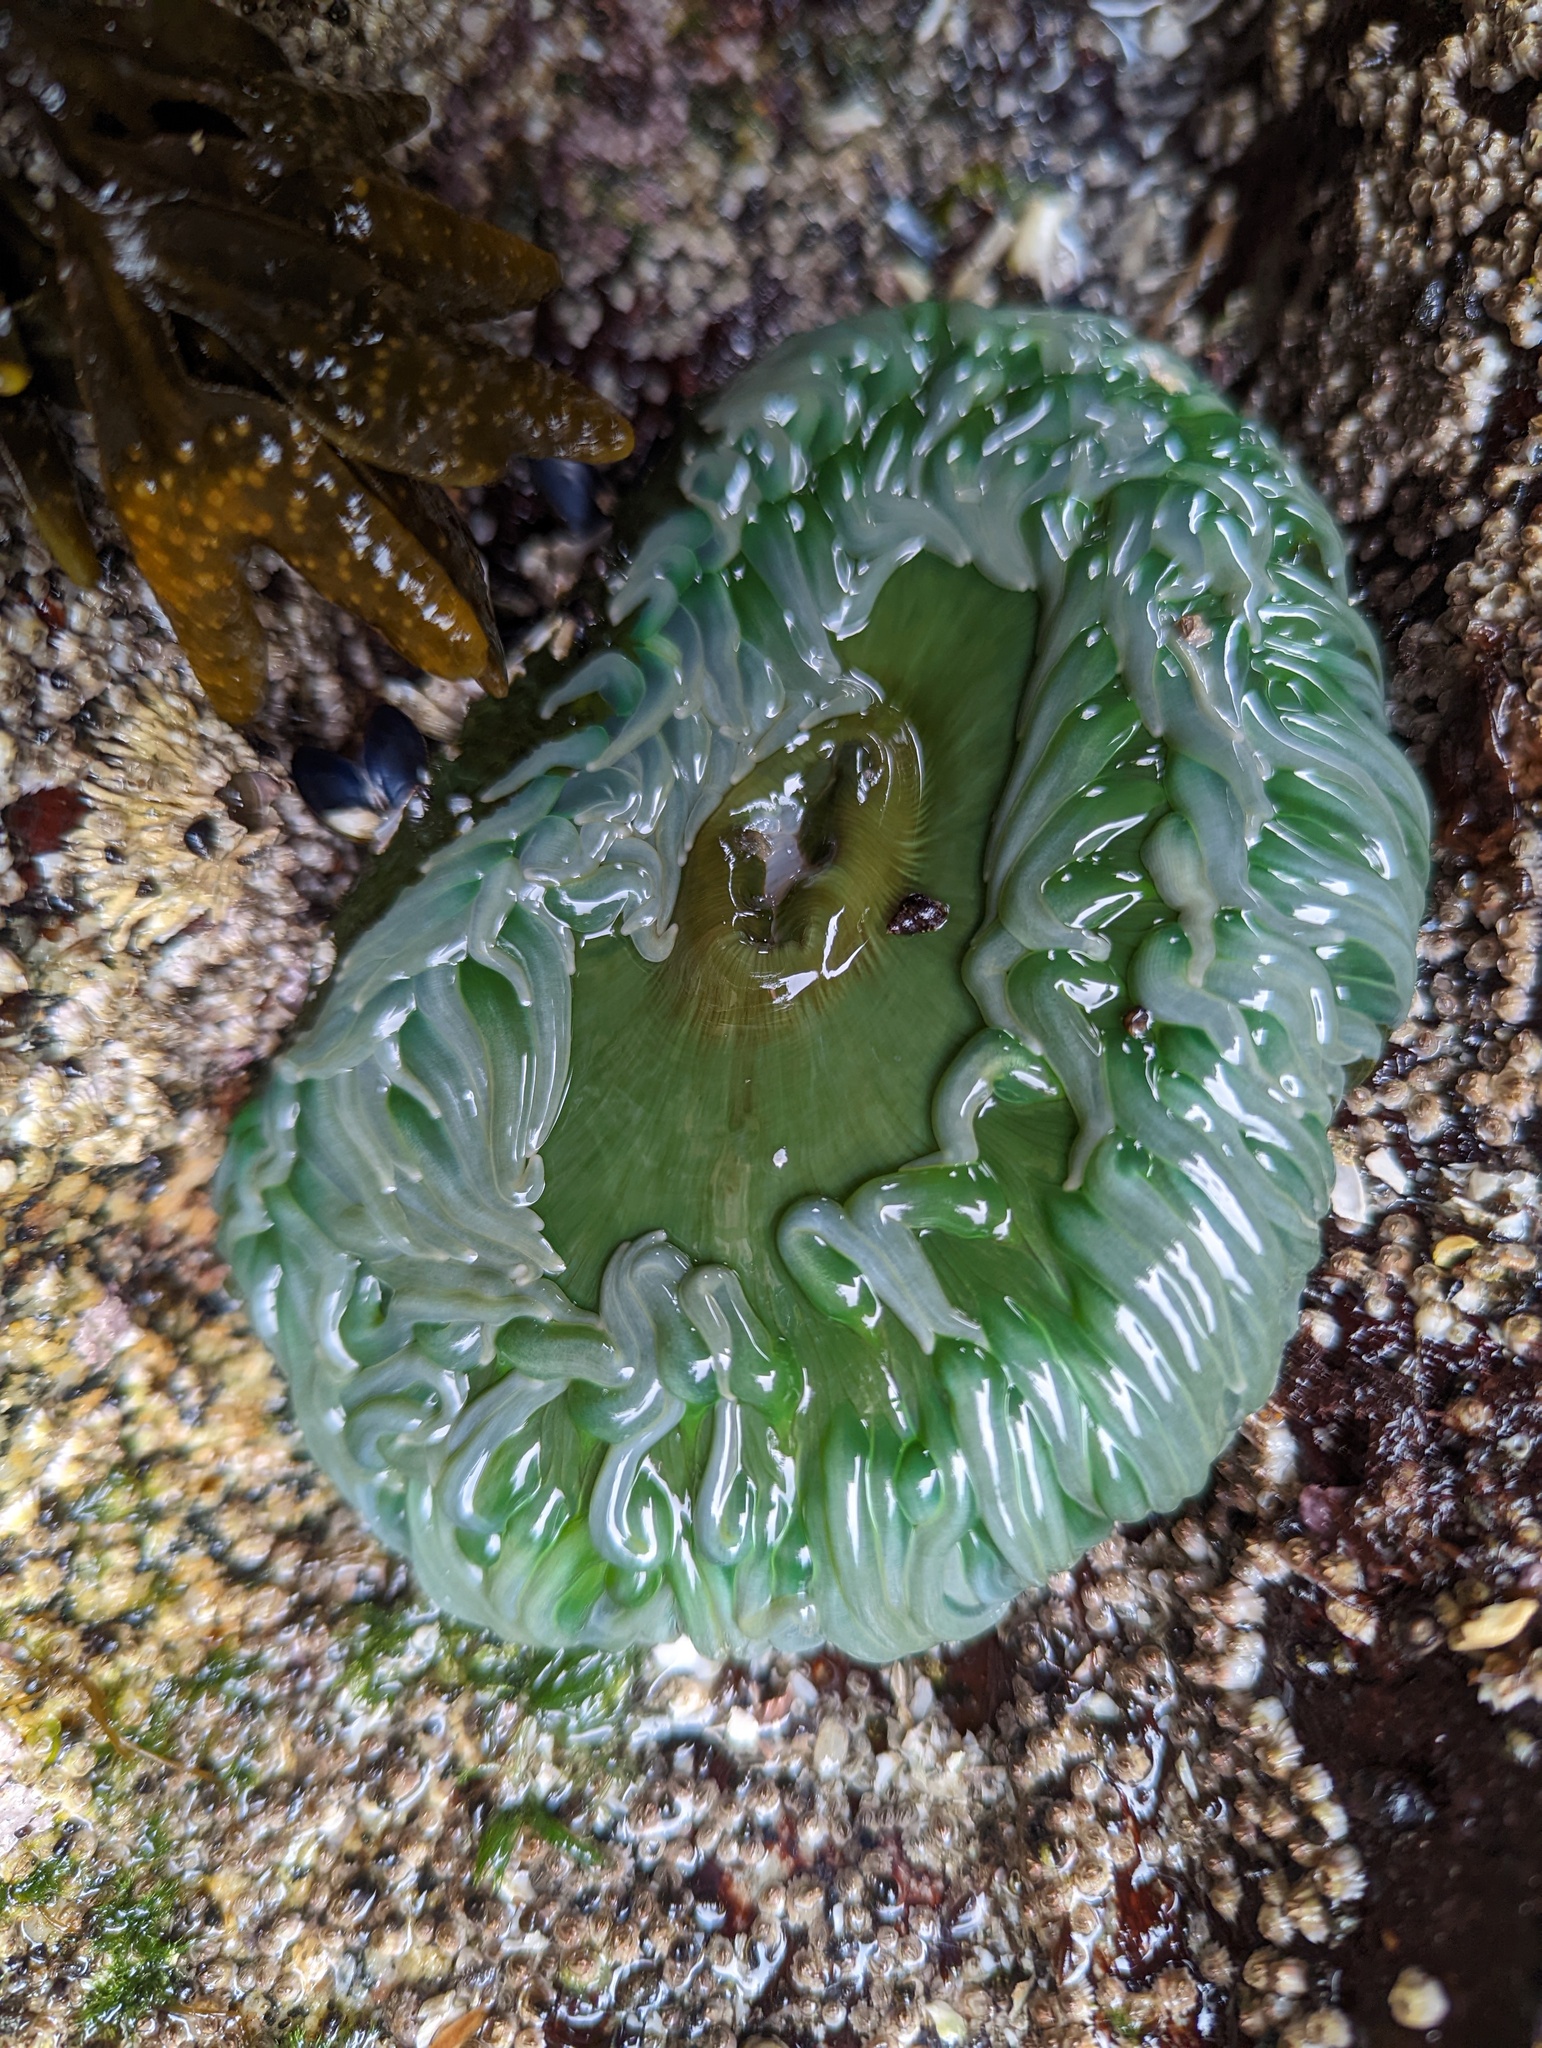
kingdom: Animalia
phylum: Cnidaria
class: Anthozoa
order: Actiniaria
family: Actiniidae
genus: Anthopleura
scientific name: Anthopleura xanthogrammica
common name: Giant green anemone
